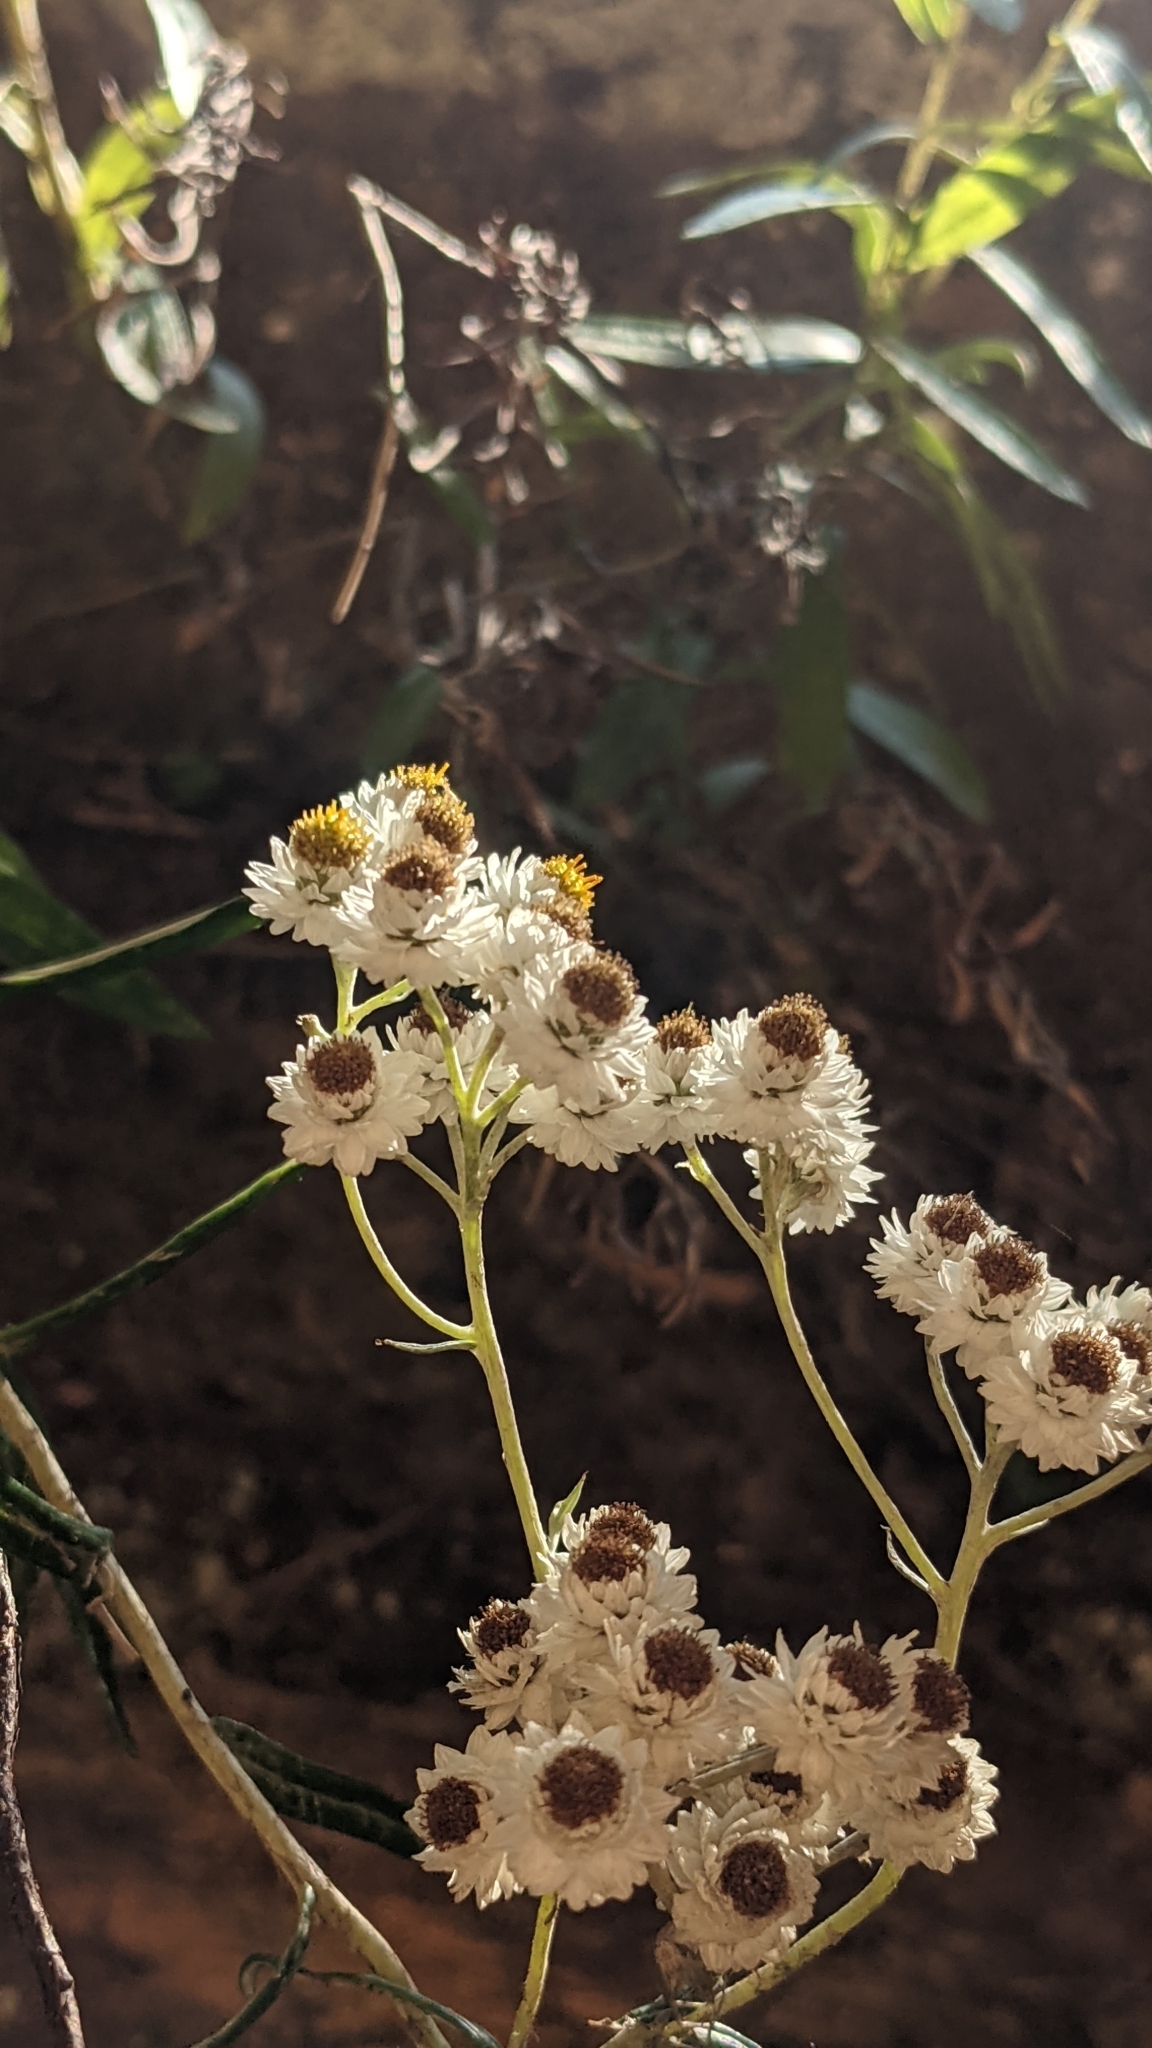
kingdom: Plantae
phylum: Tracheophyta
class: Magnoliopsida
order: Asterales
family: Asteraceae
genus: Anaphalis
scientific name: Anaphalis margaritacea
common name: Pearly everlasting
